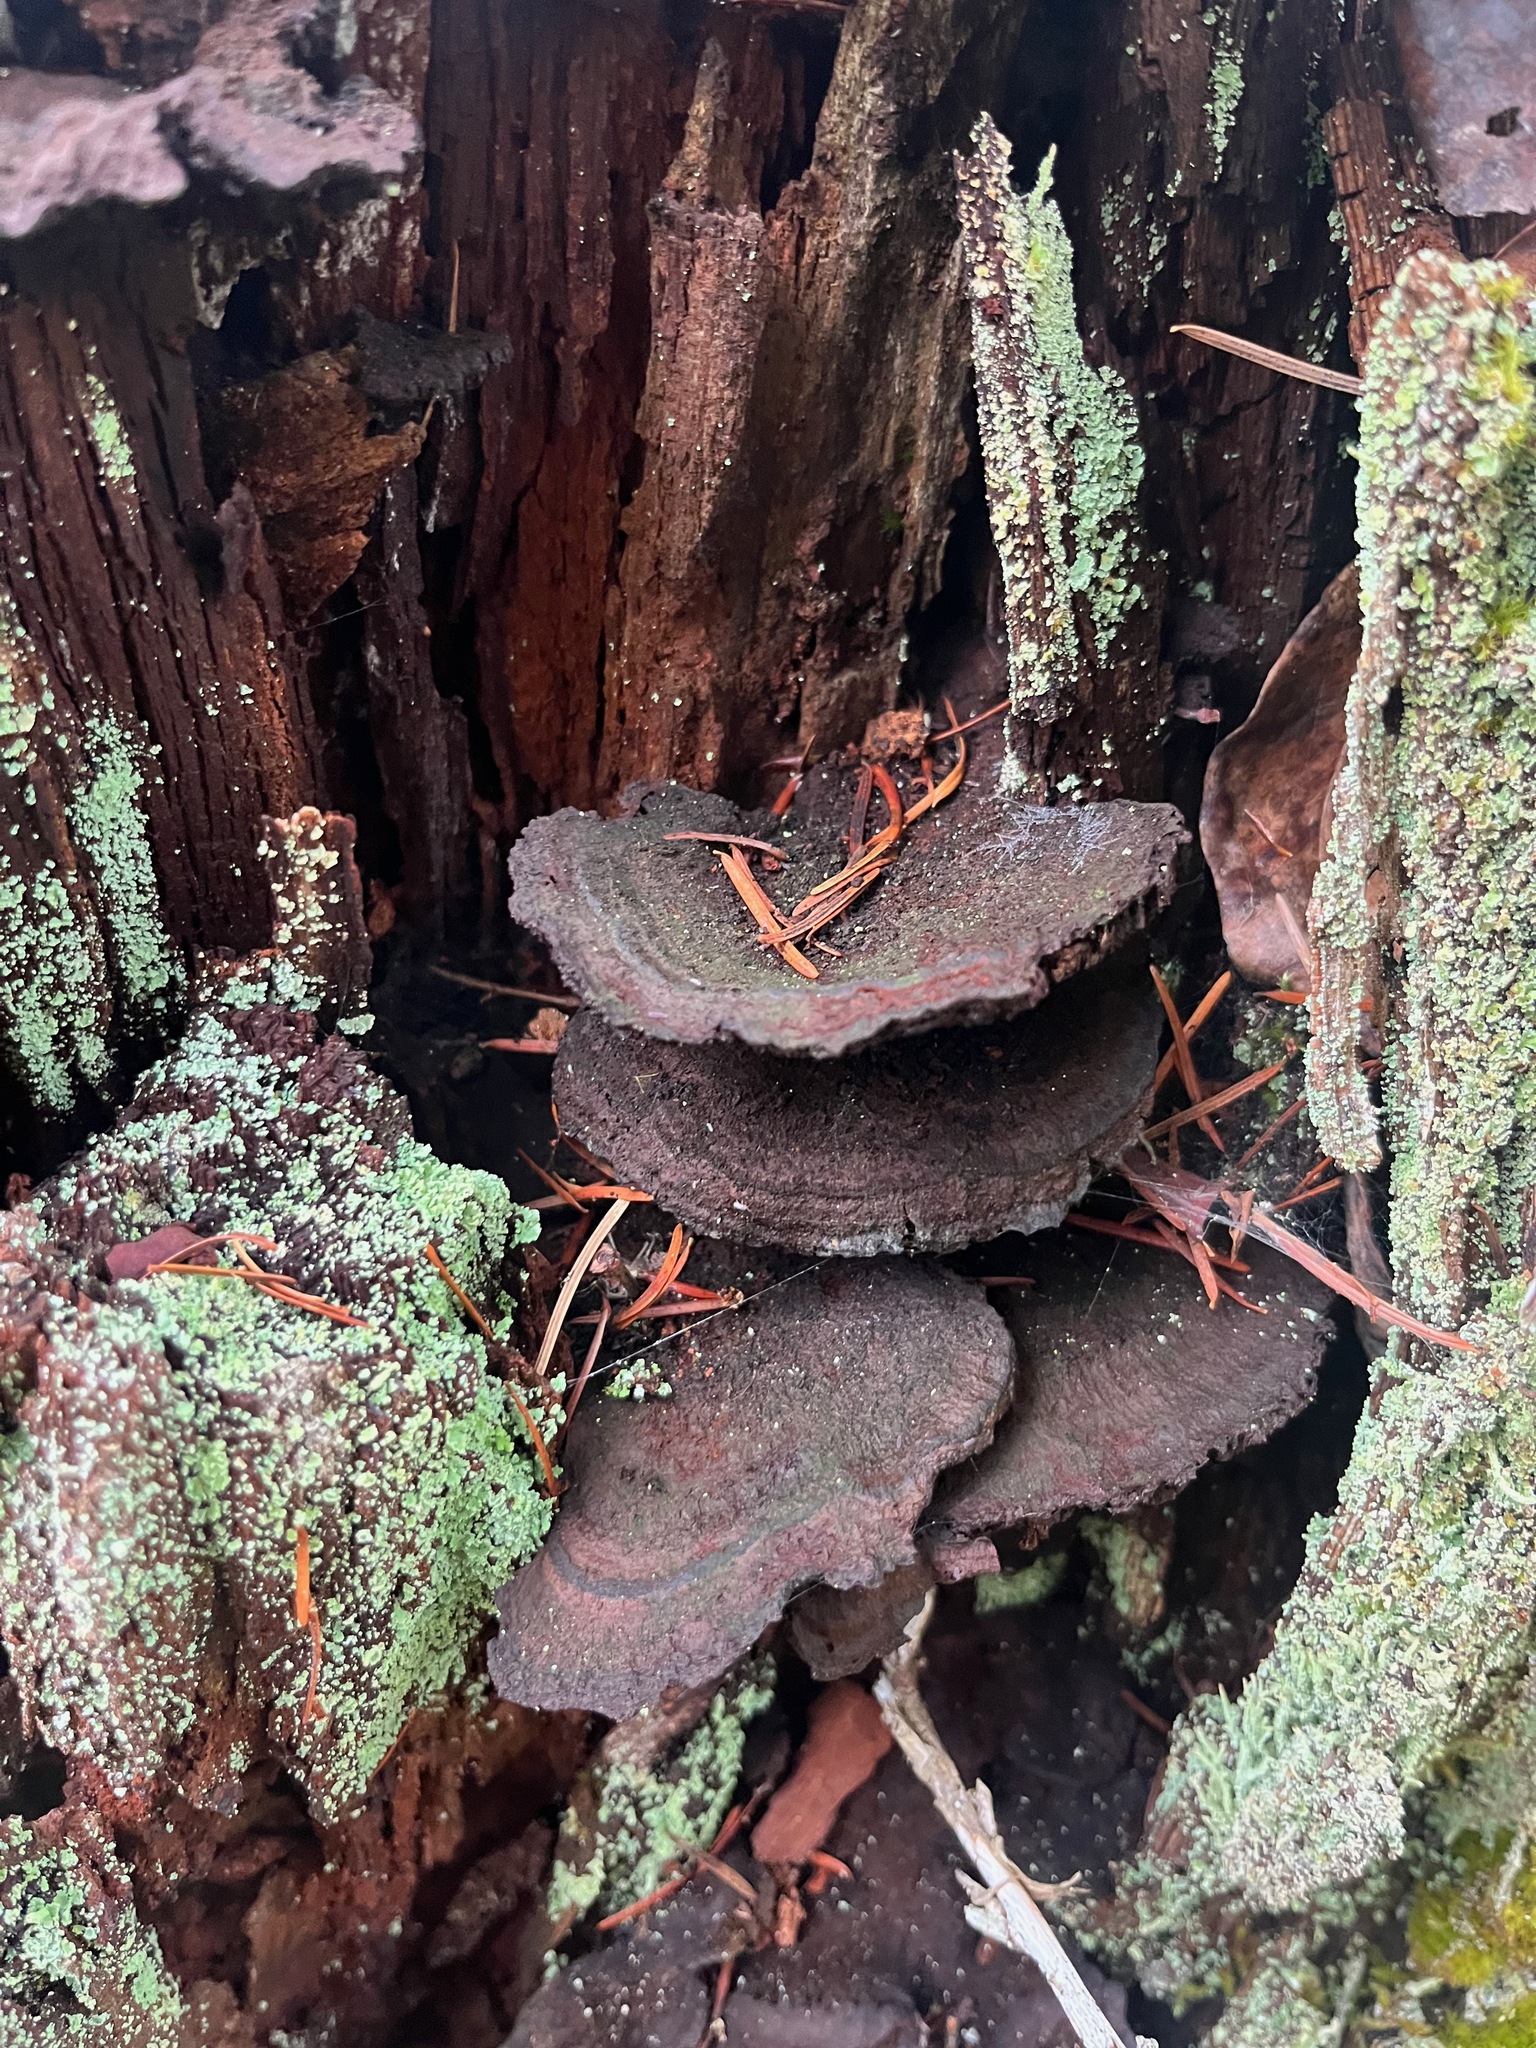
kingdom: Fungi
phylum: Basidiomycota
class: Agaricomycetes
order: Polyporales
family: Laetiporaceae
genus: Phaeolus
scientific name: Phaeolus schweinitzii
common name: Dyer's mazegill
